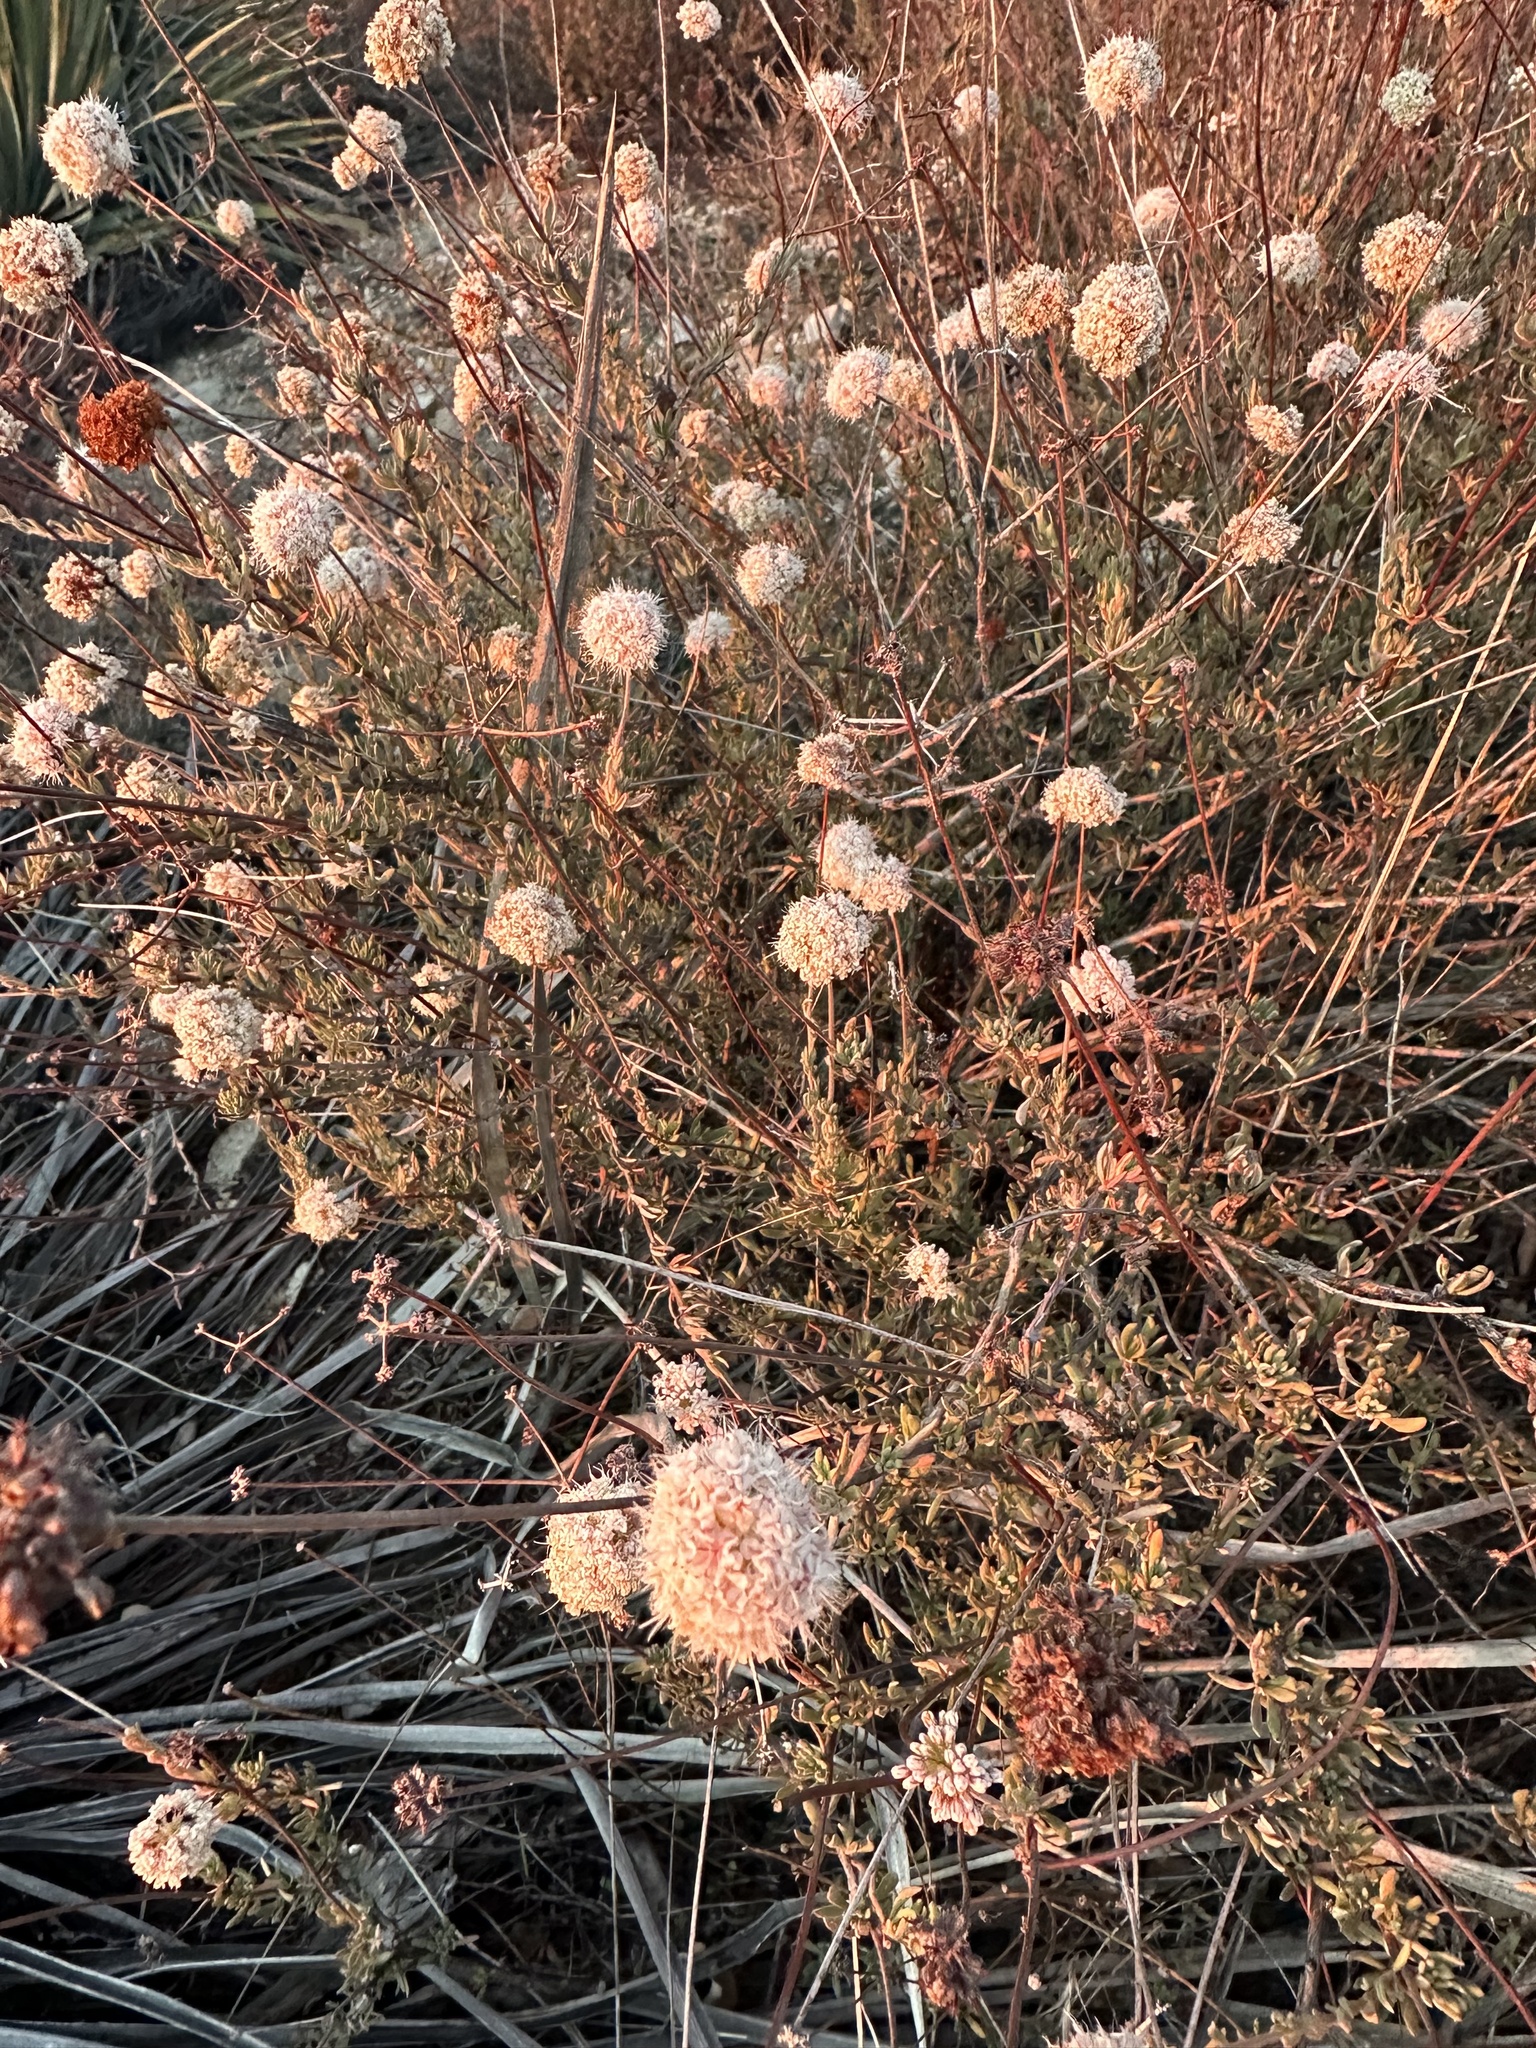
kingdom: Plantae
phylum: Tracheophyta
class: Magnoliopsida
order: Caryophyllales
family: Polygonaceae
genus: Eriogonum
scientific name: Eriogonum fasciculatum
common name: California wild buckwheat
